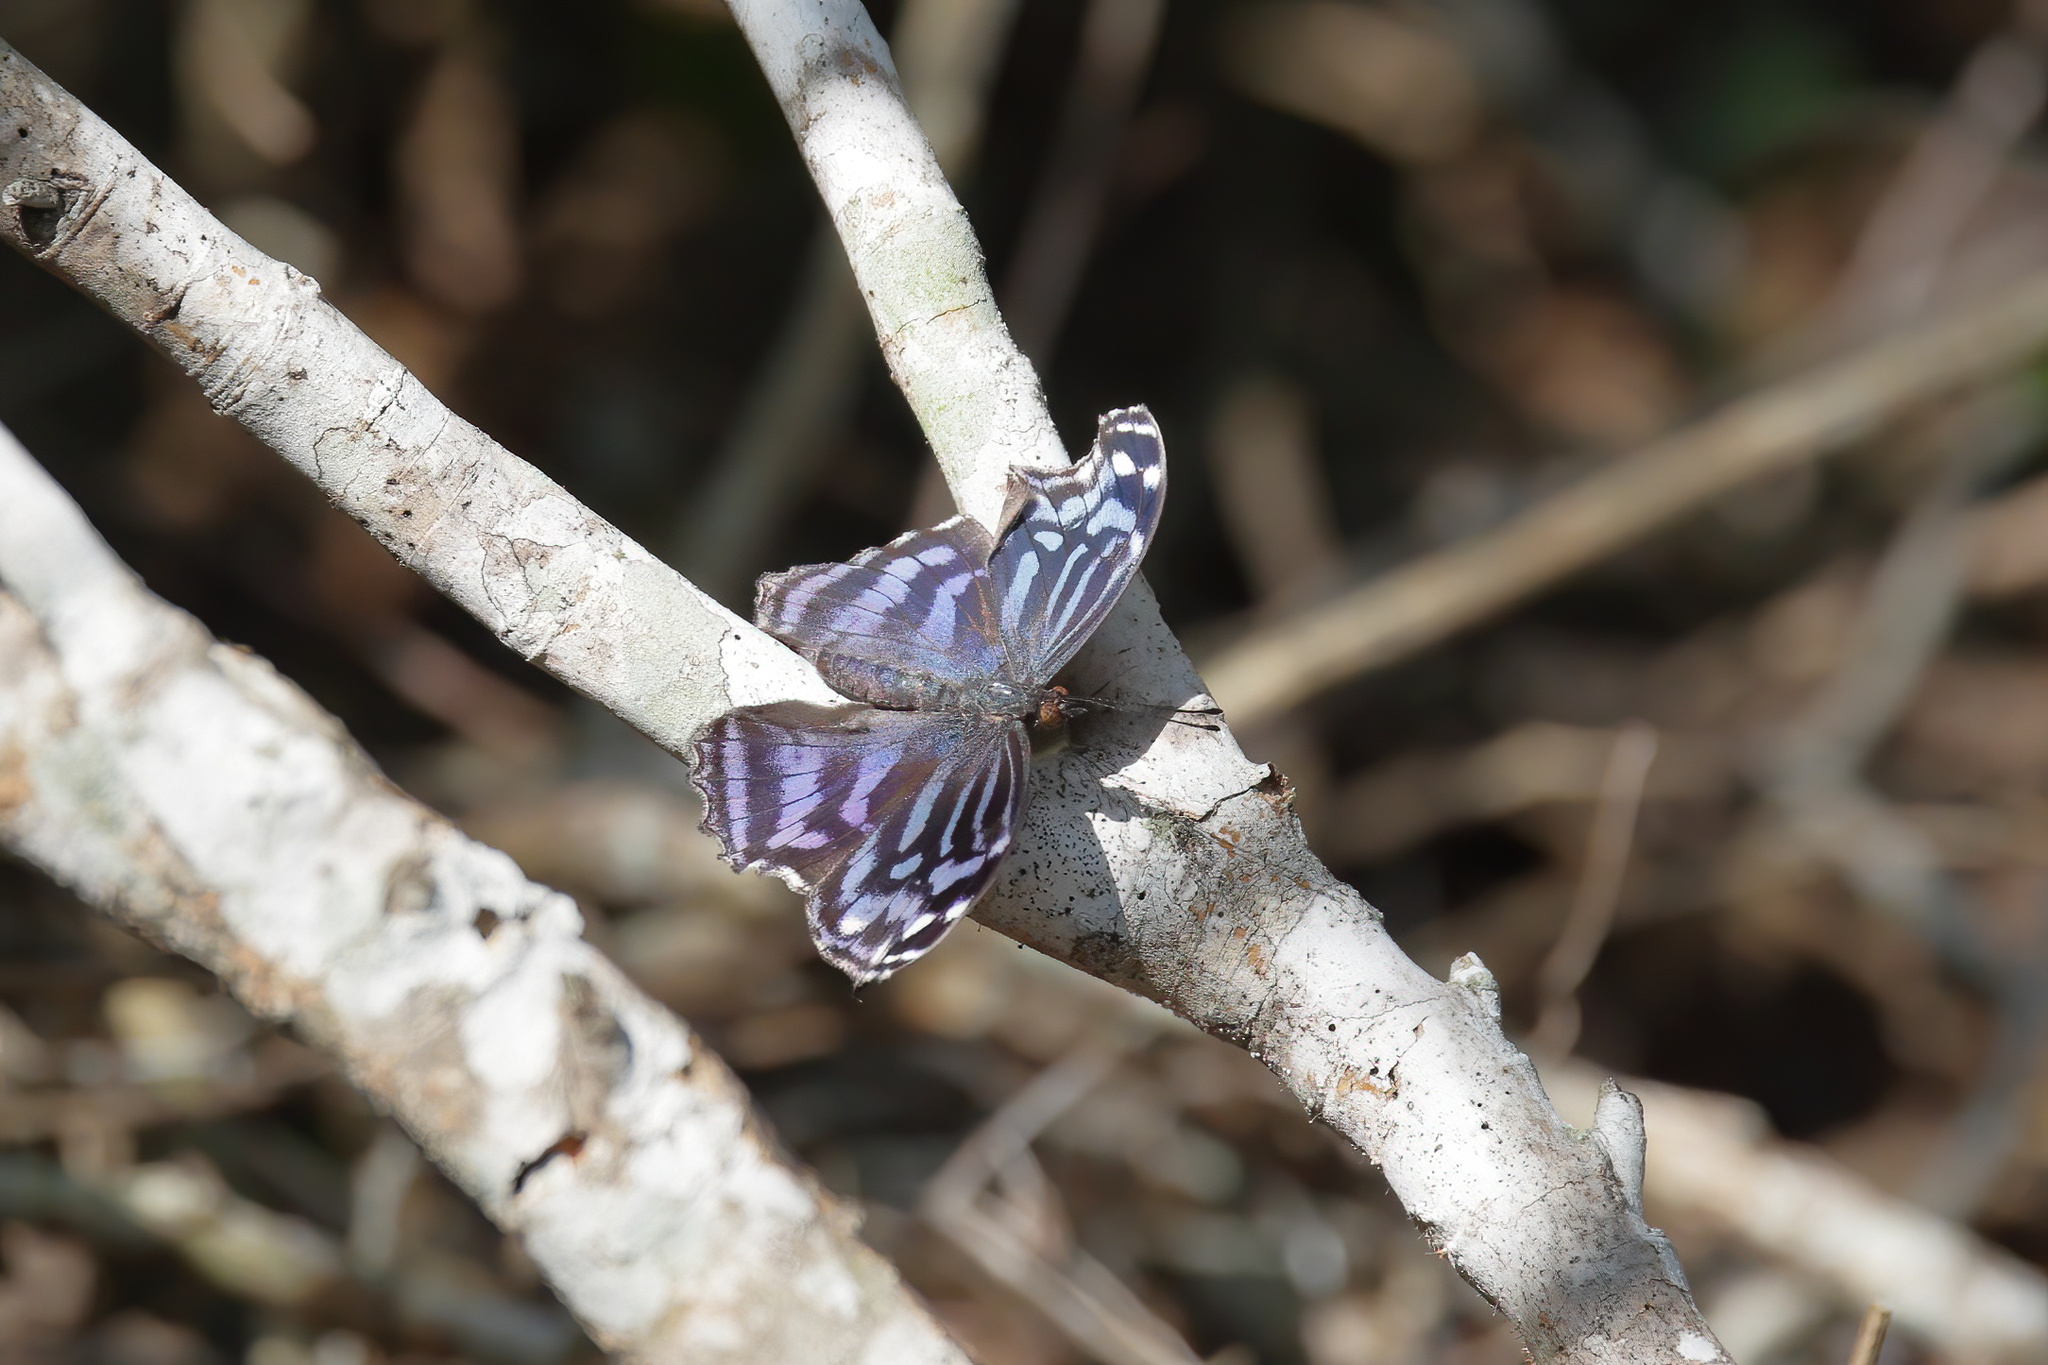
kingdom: Animalia
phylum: Arthropoda
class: Insecta
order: Lepidoptera
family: Nymphalidae
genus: Myscelia
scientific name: Myscelia ethusa
